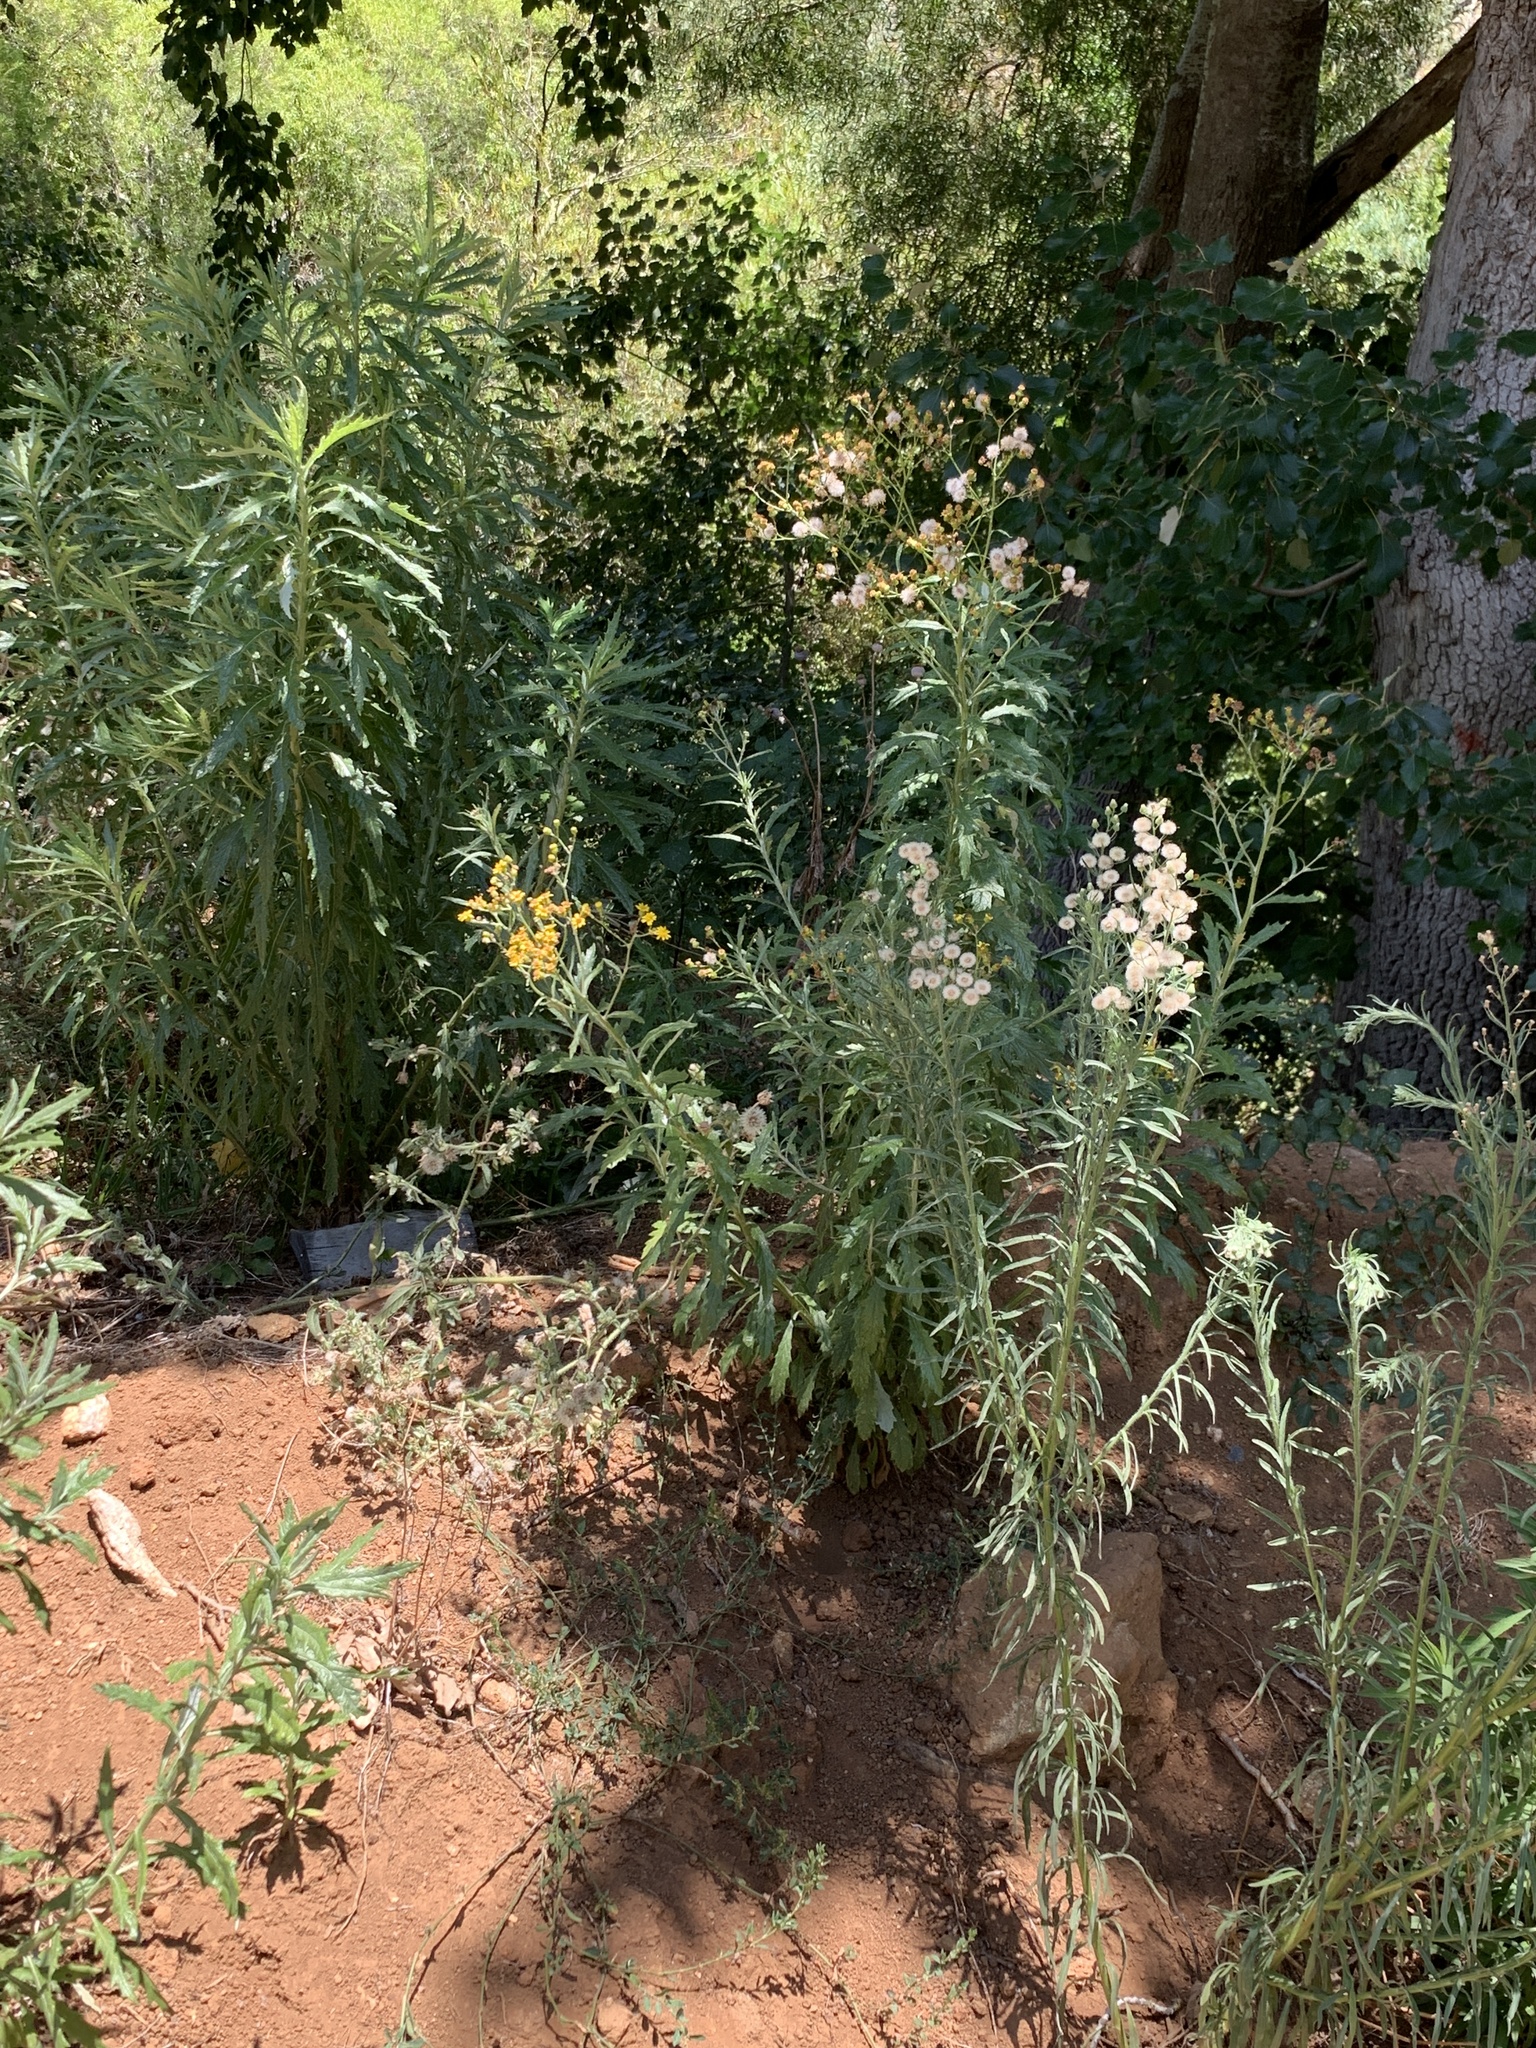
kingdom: Plantae
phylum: Tracheophyta
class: Magnoliopsida
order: Asterales
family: Asteraceae
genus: Senecio
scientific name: Senecio pterophorus
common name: Shoddy ragwort
